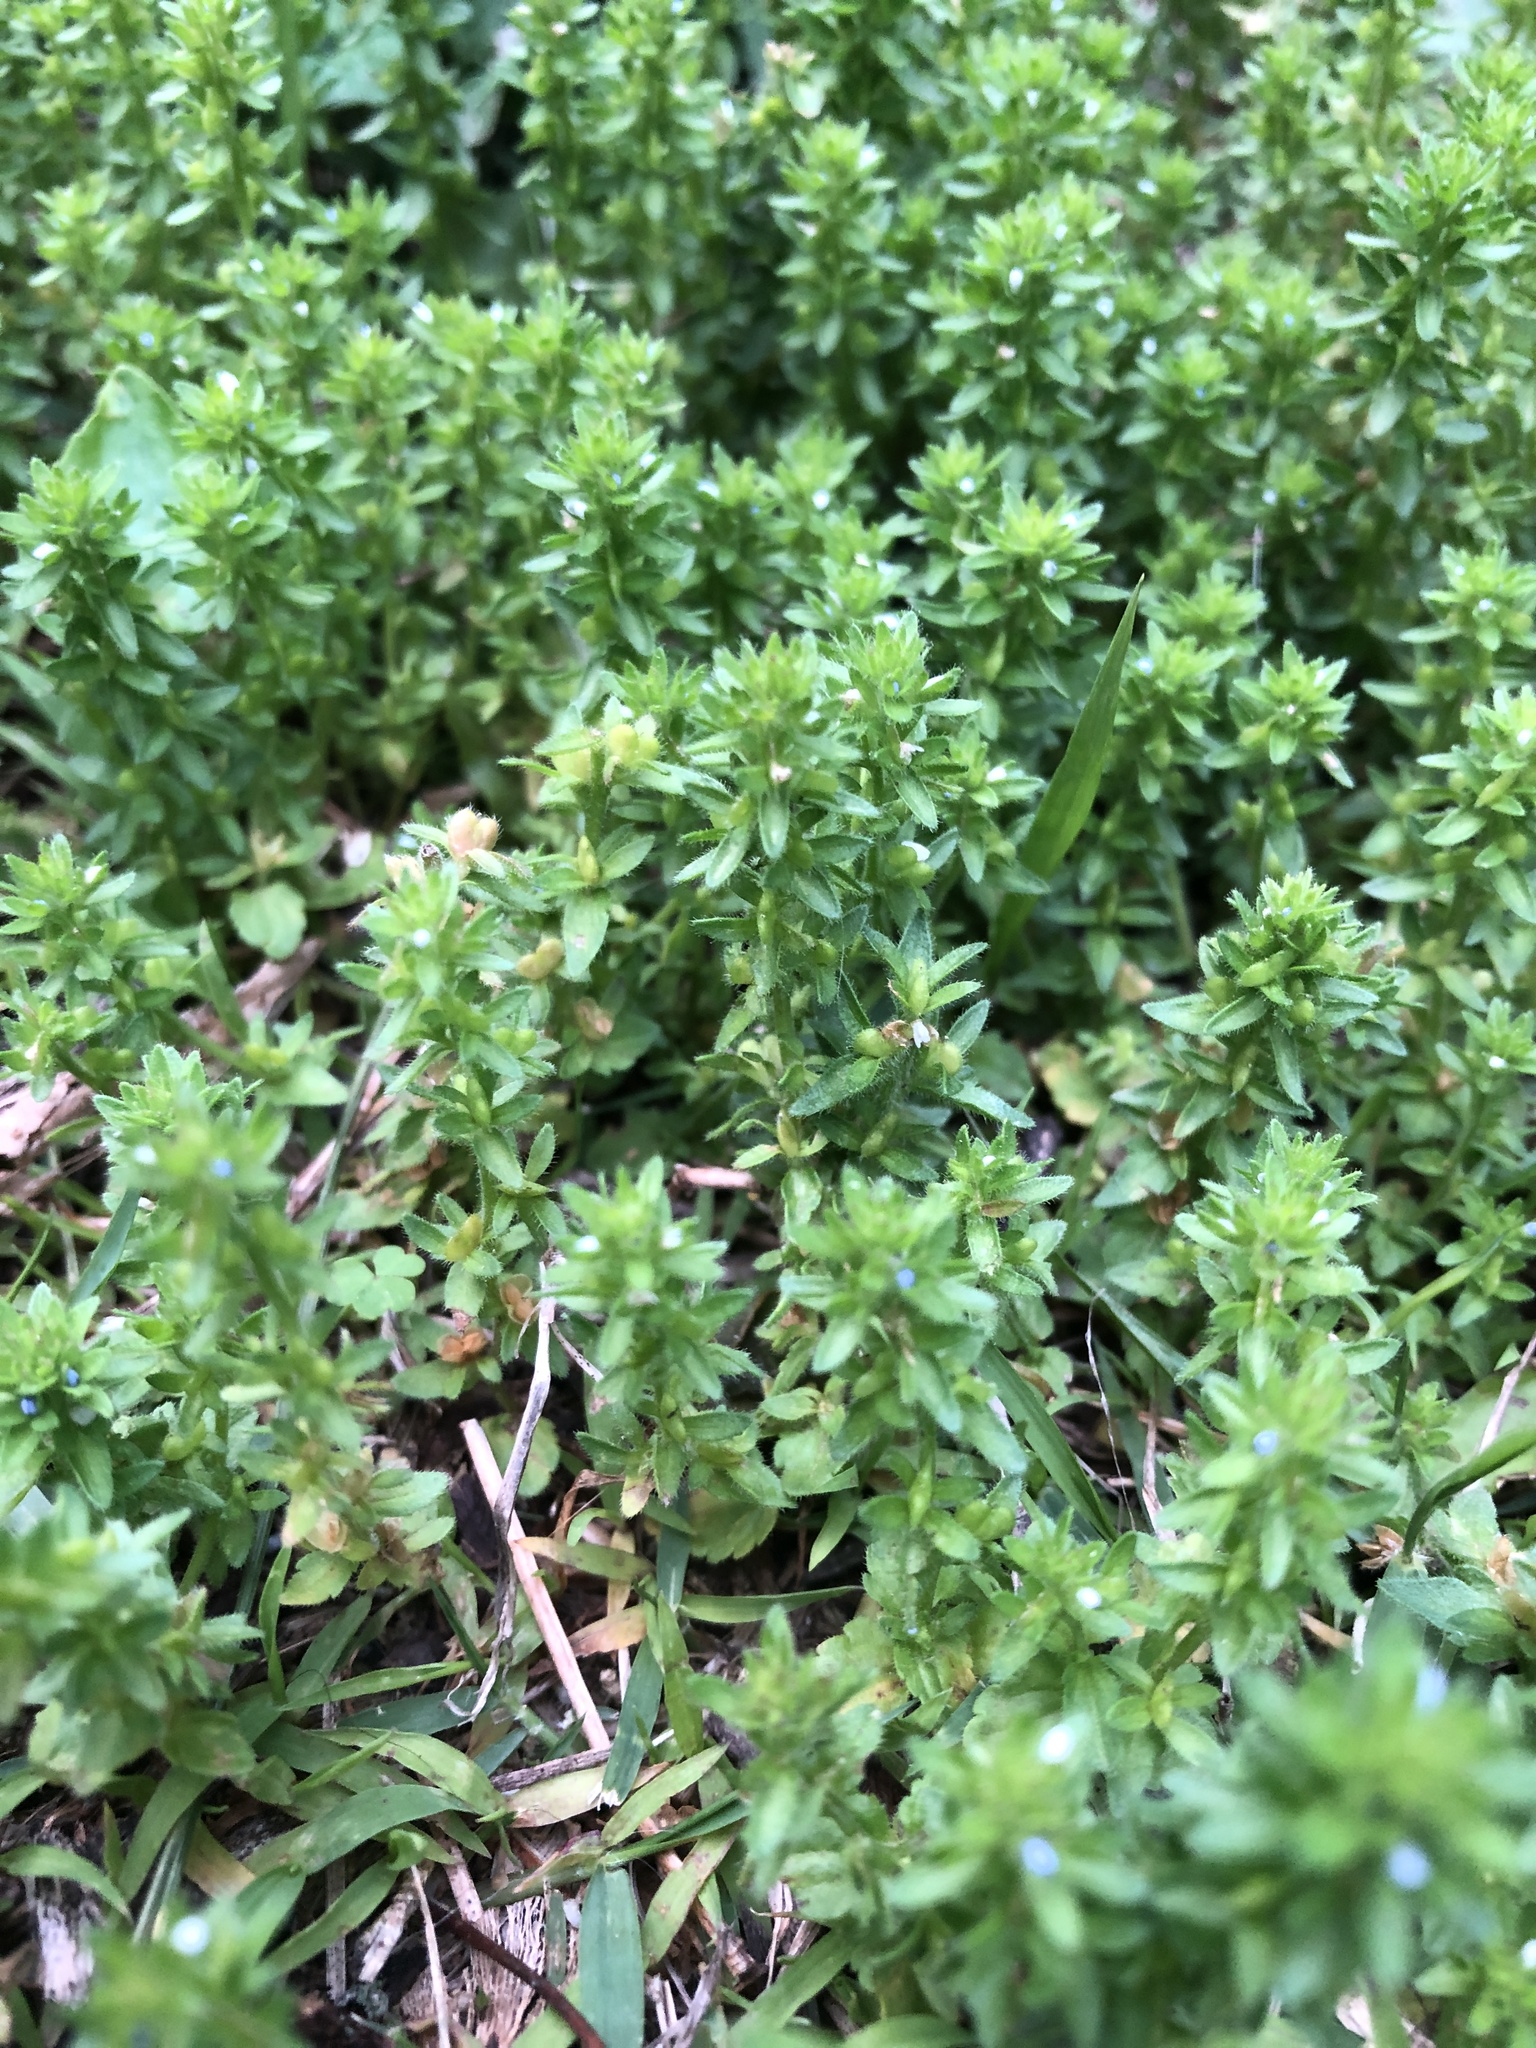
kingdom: Plantae
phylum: Tracheophyta
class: Magnoliopsida
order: Lamiales
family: Plantaginaceae
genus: Veronica
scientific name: Veronica arvensis
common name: Corn speedwell
